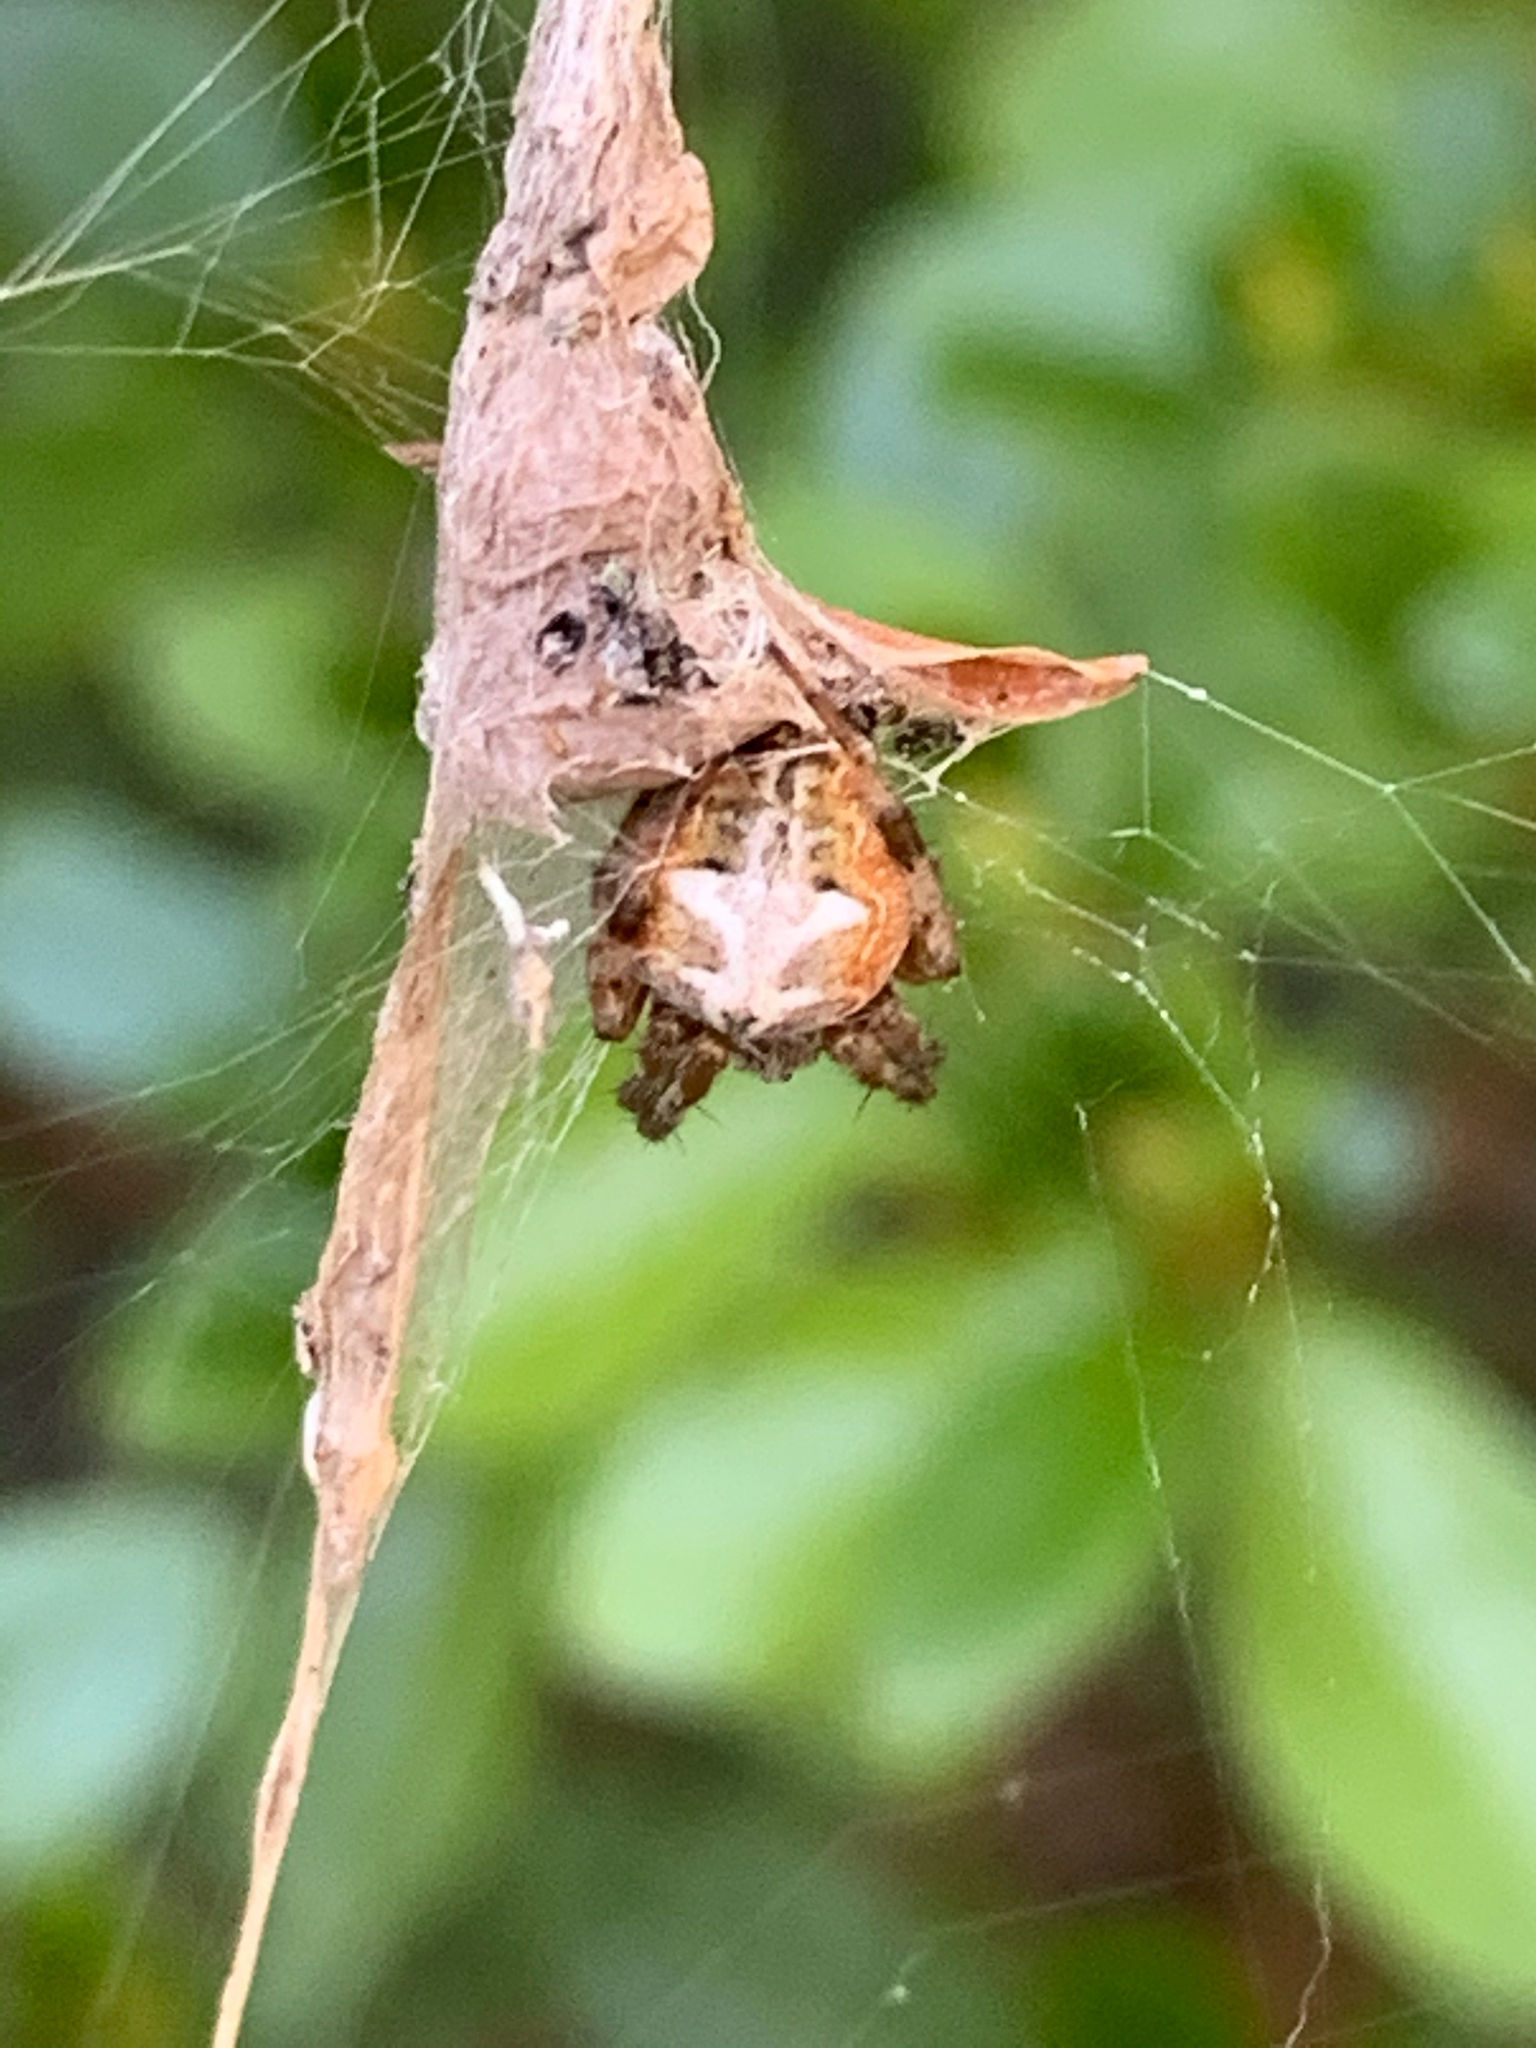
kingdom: Animalia
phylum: Arthropoda
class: Arachnida
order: Araneae
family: Araneidae
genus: Metepeira
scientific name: Metepeira labyrinthea
